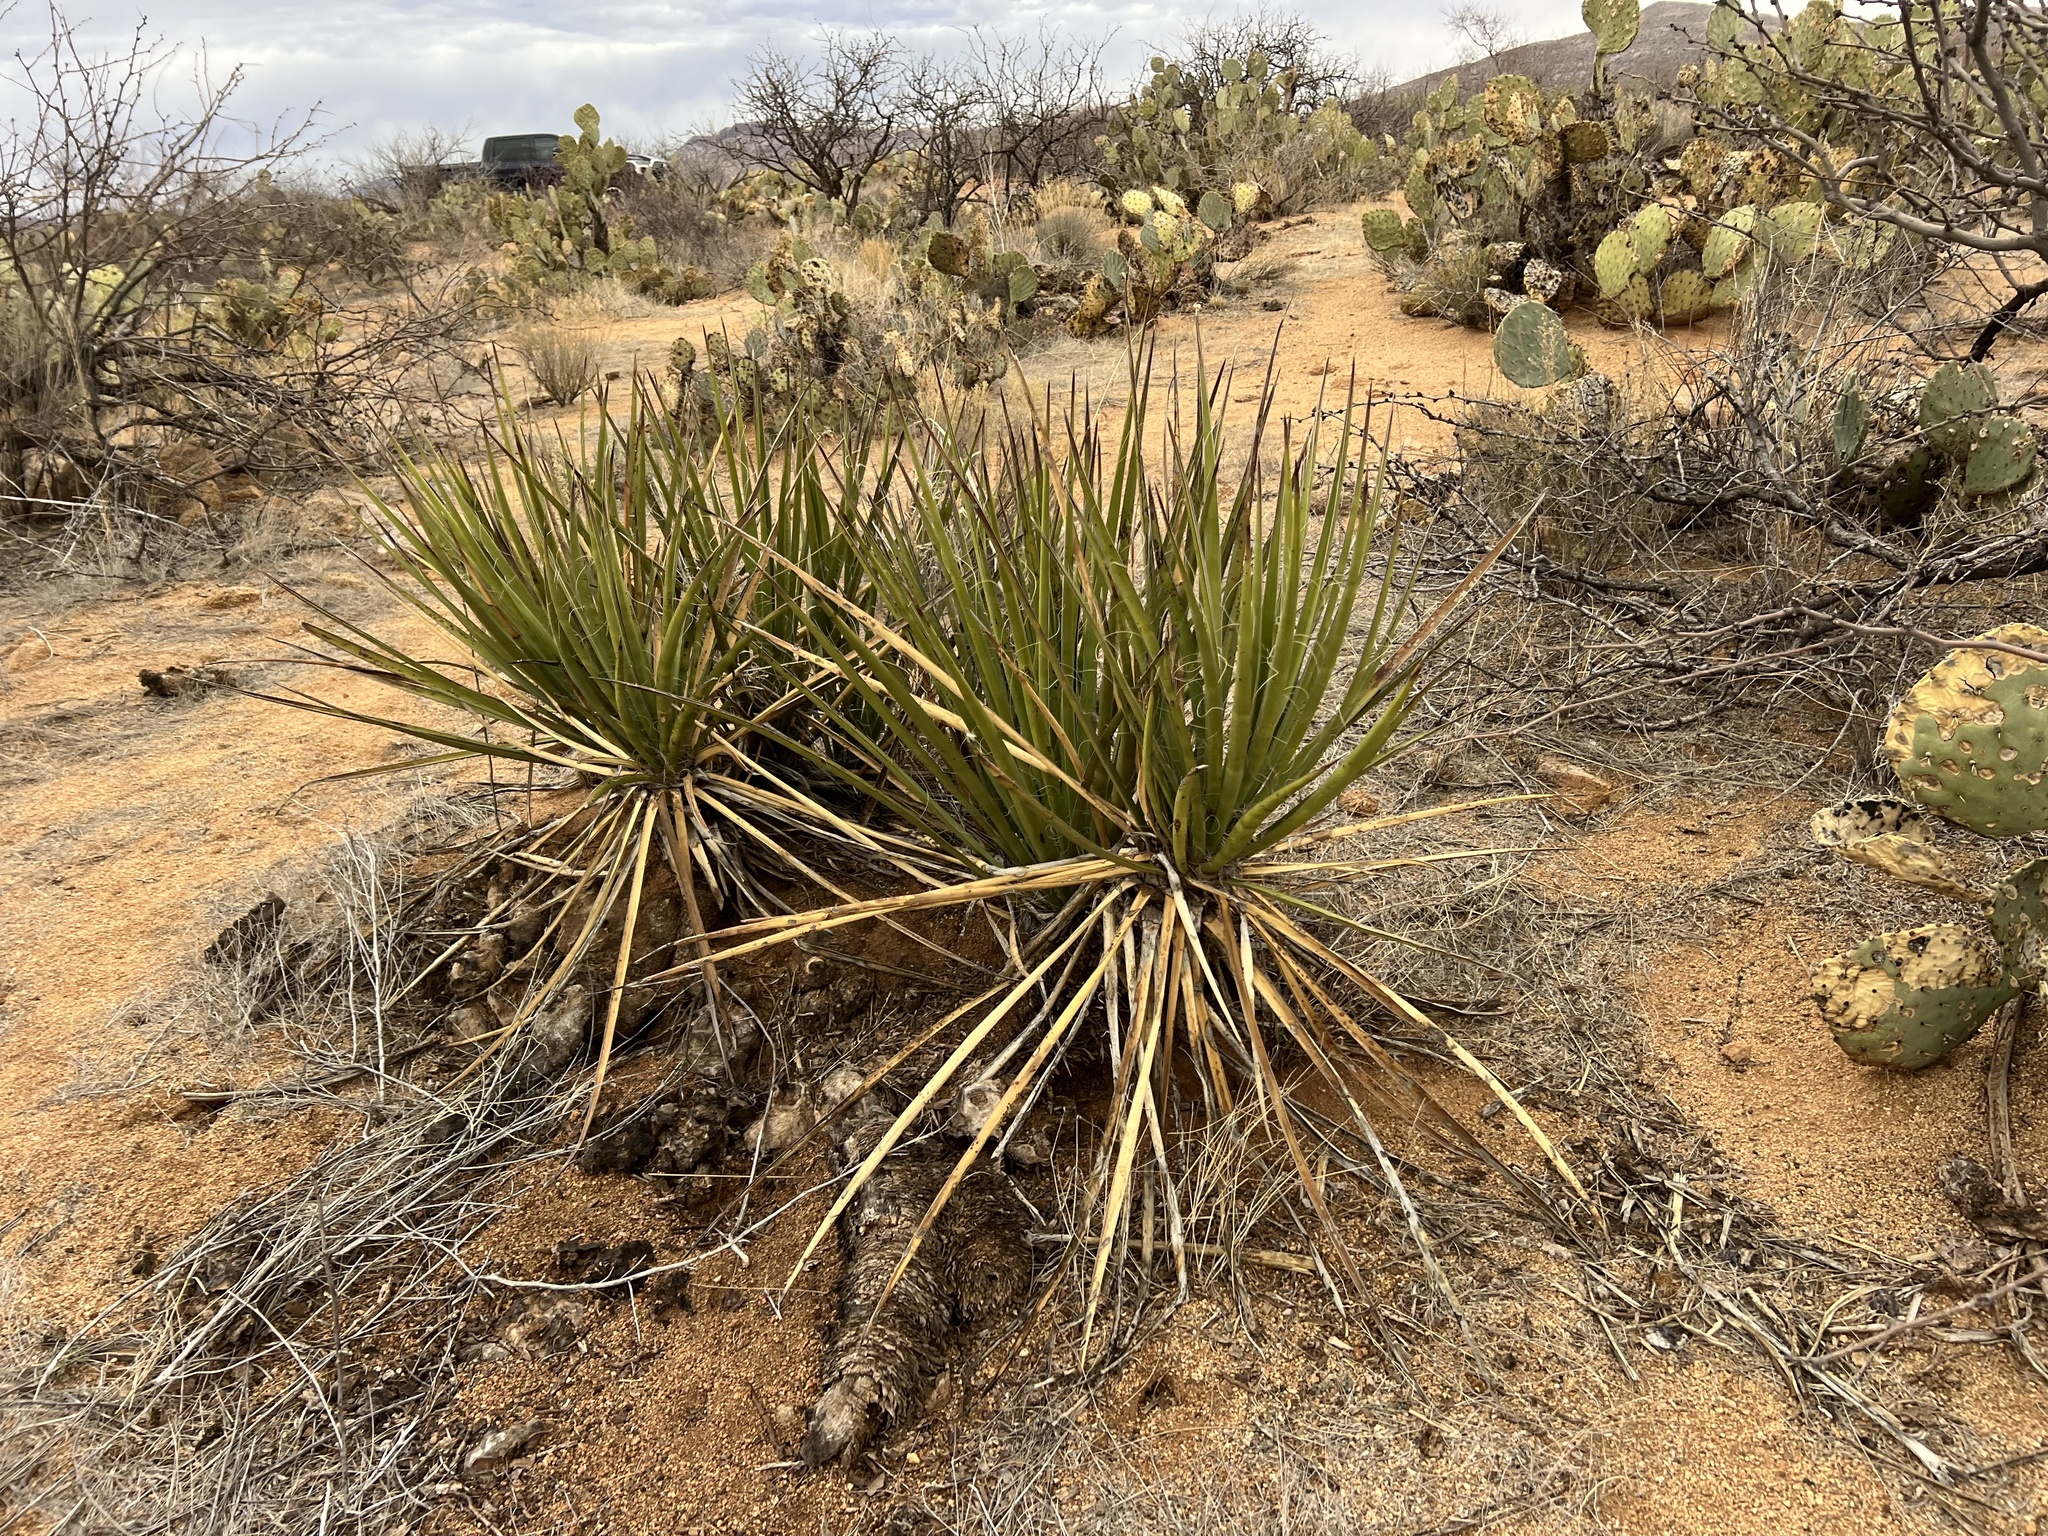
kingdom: Plantae
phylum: Tracheophyta
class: Liliopsida
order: Asparagales
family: Asparagaceae
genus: Yucca
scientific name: Yucca baccata
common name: Banana yucca
